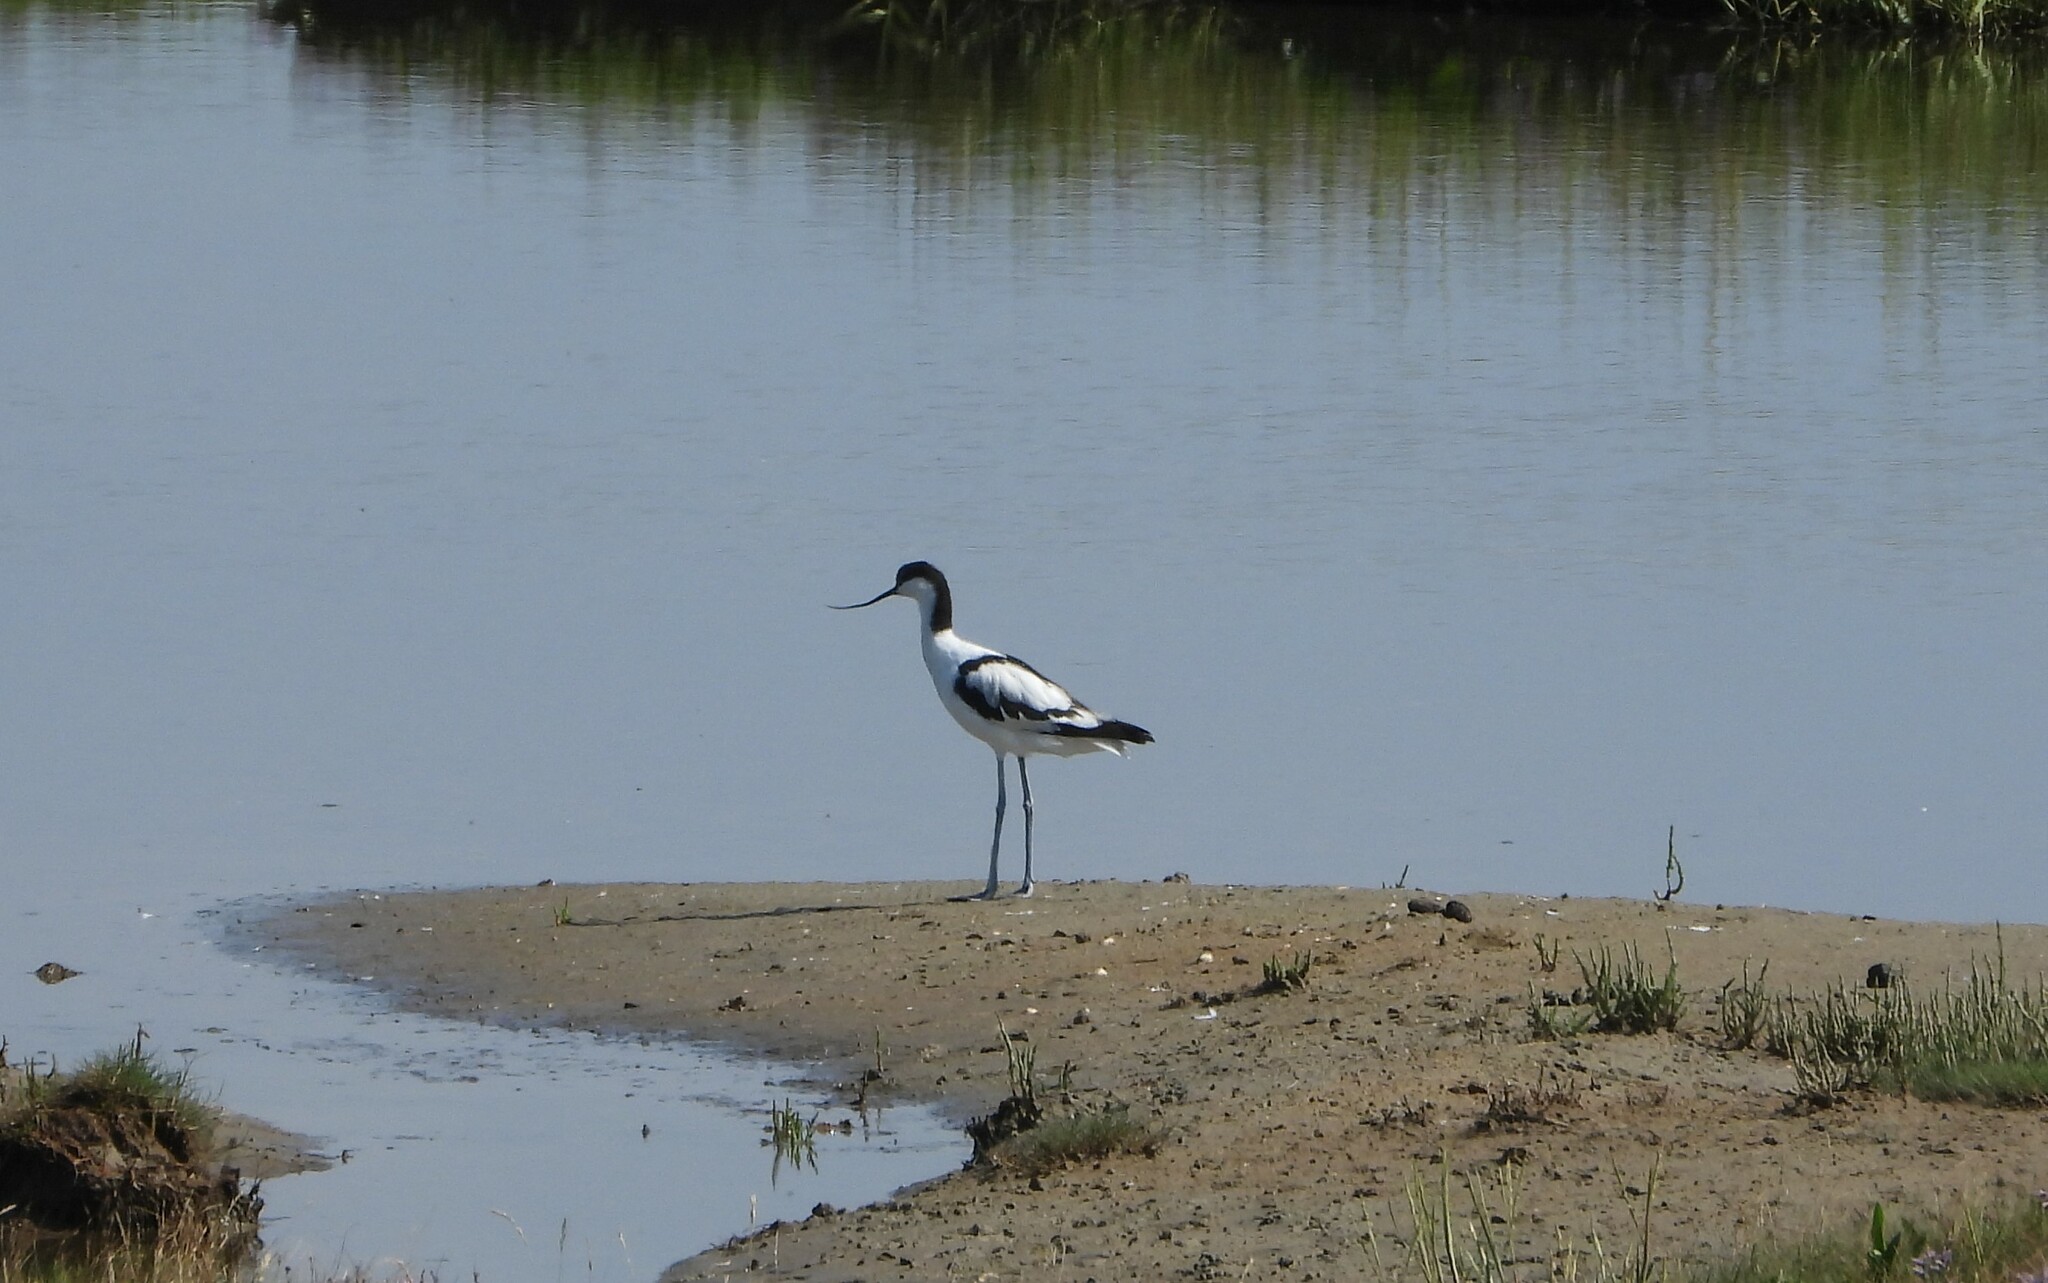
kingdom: Animalia
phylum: Chordata
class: Aves
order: Charadriiformes
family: Recurvirostridae
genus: Recurvirostra
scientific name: Recurvirostra avosetta
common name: Pied avocet
